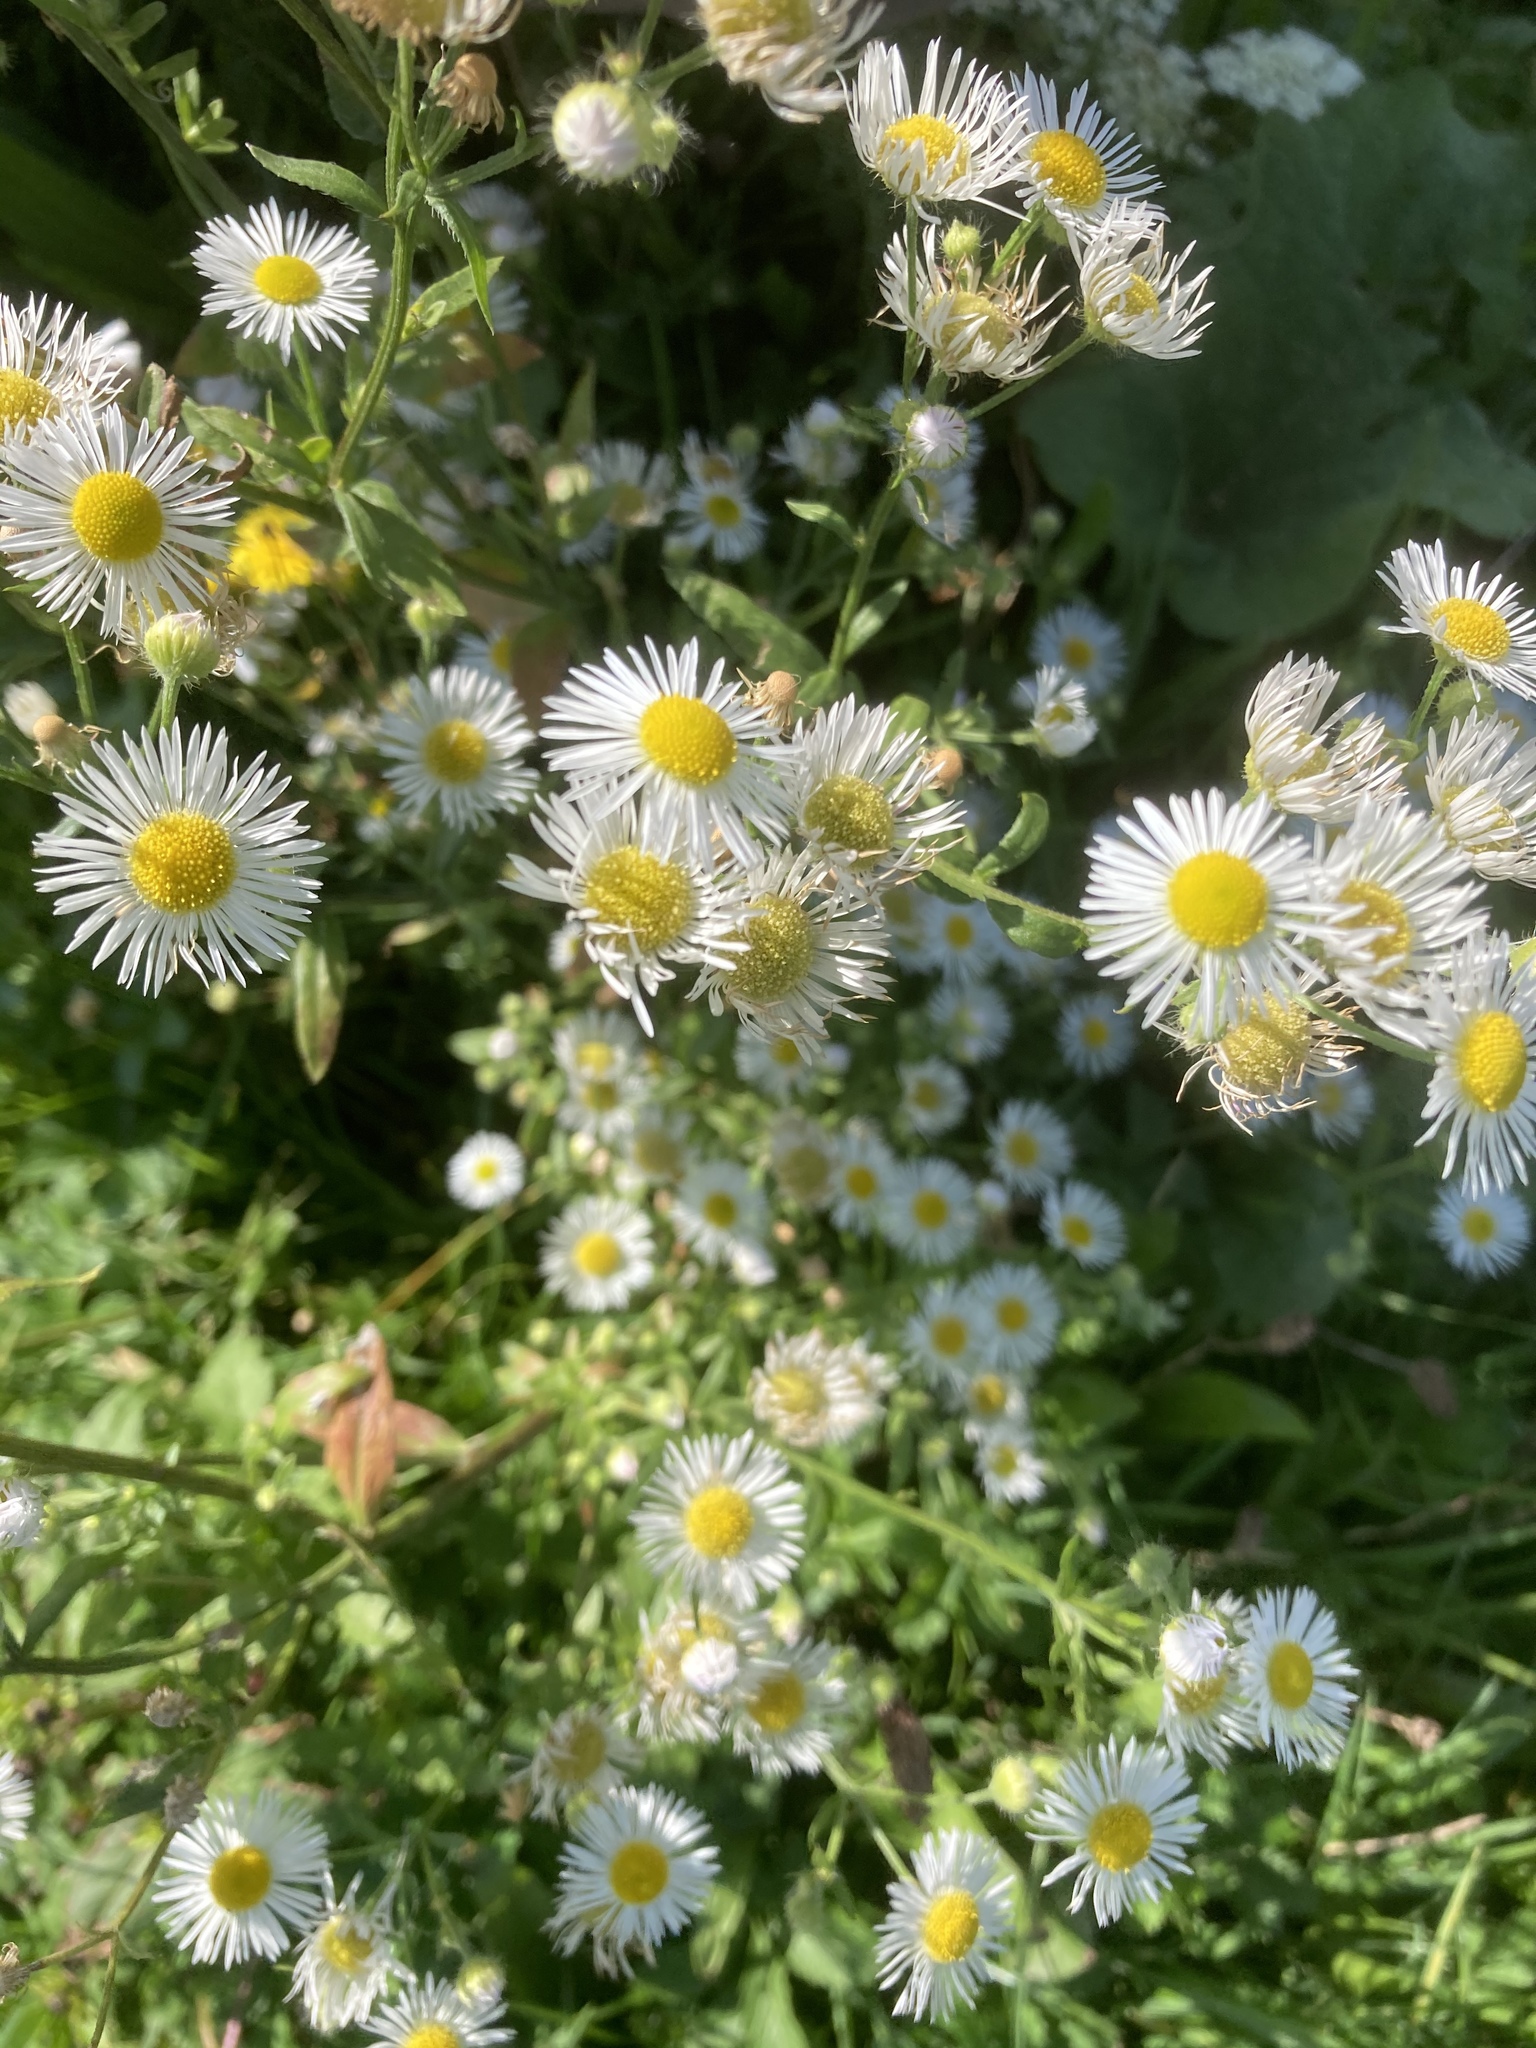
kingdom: Plantae
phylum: Tracheophyta
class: Magnoliopsida
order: Asterales
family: Asteraceae
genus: Erigeron
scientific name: Erigeron annuus
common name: Tall fleabane
